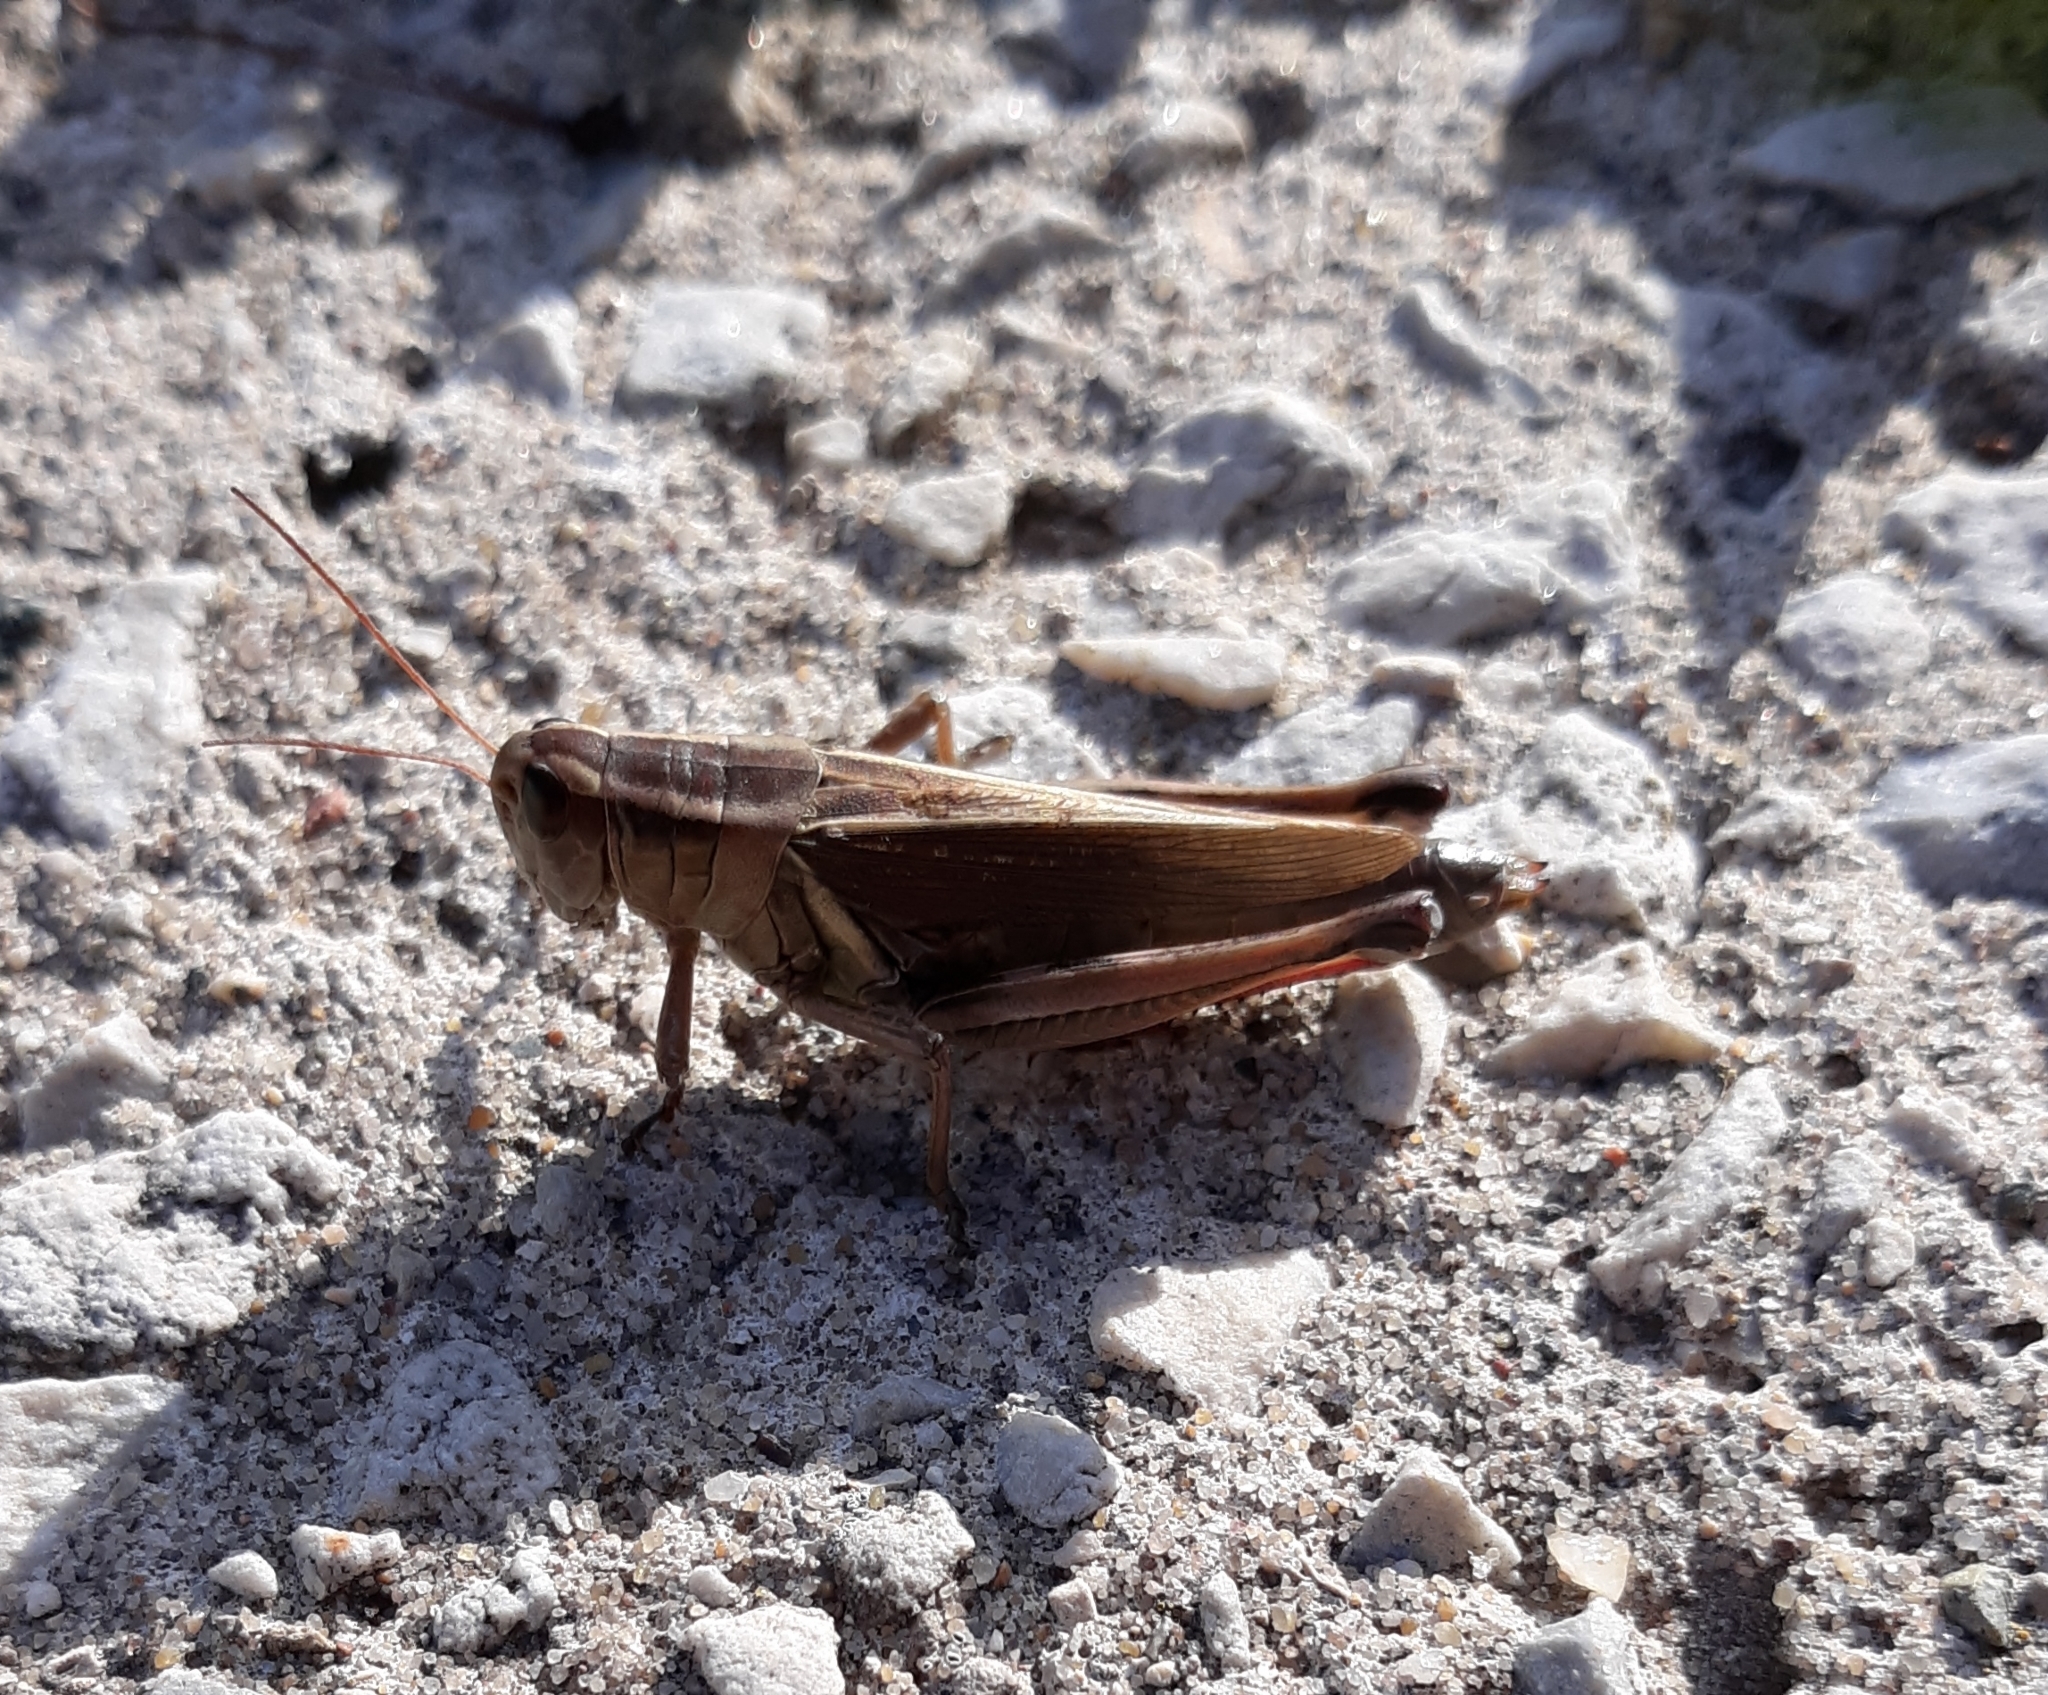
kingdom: Animalia
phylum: Arthropoda
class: Insecta
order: Orthoptera
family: Acrididae
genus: Melanoplus
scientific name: Melanoplus bivittatus
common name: Two-striped grasshopper
